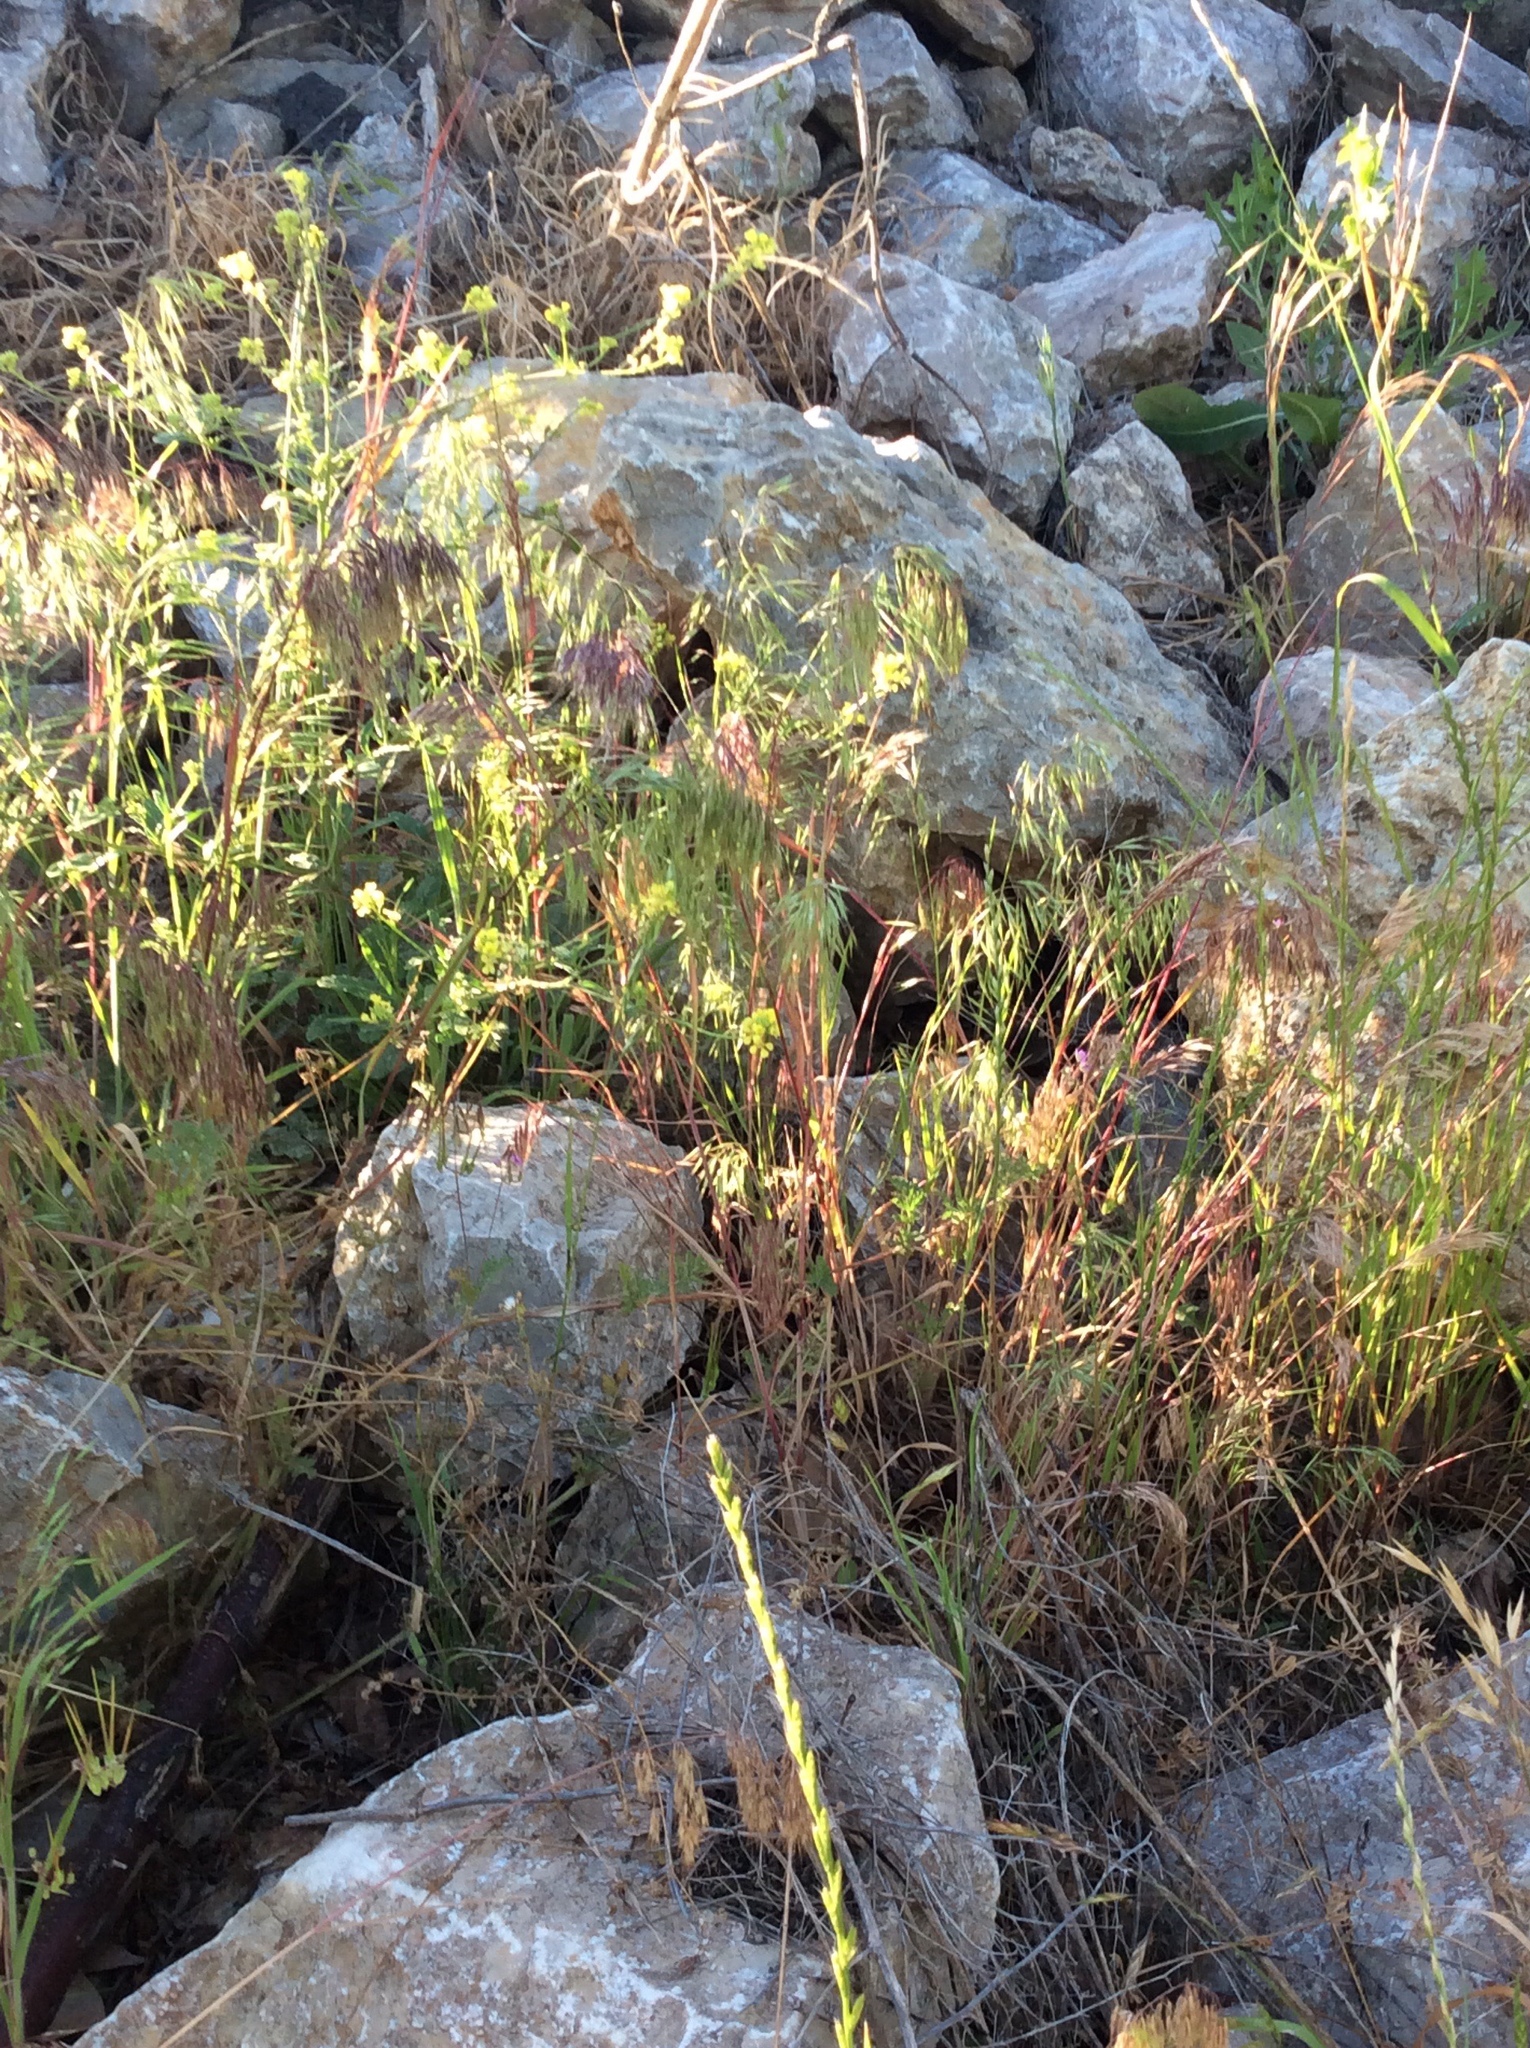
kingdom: Plantae
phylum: Tracheophyta
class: Liliopsida
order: Poales
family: Poaceae
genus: Bromus
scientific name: Bromus tectorum
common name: Cheatgrass
